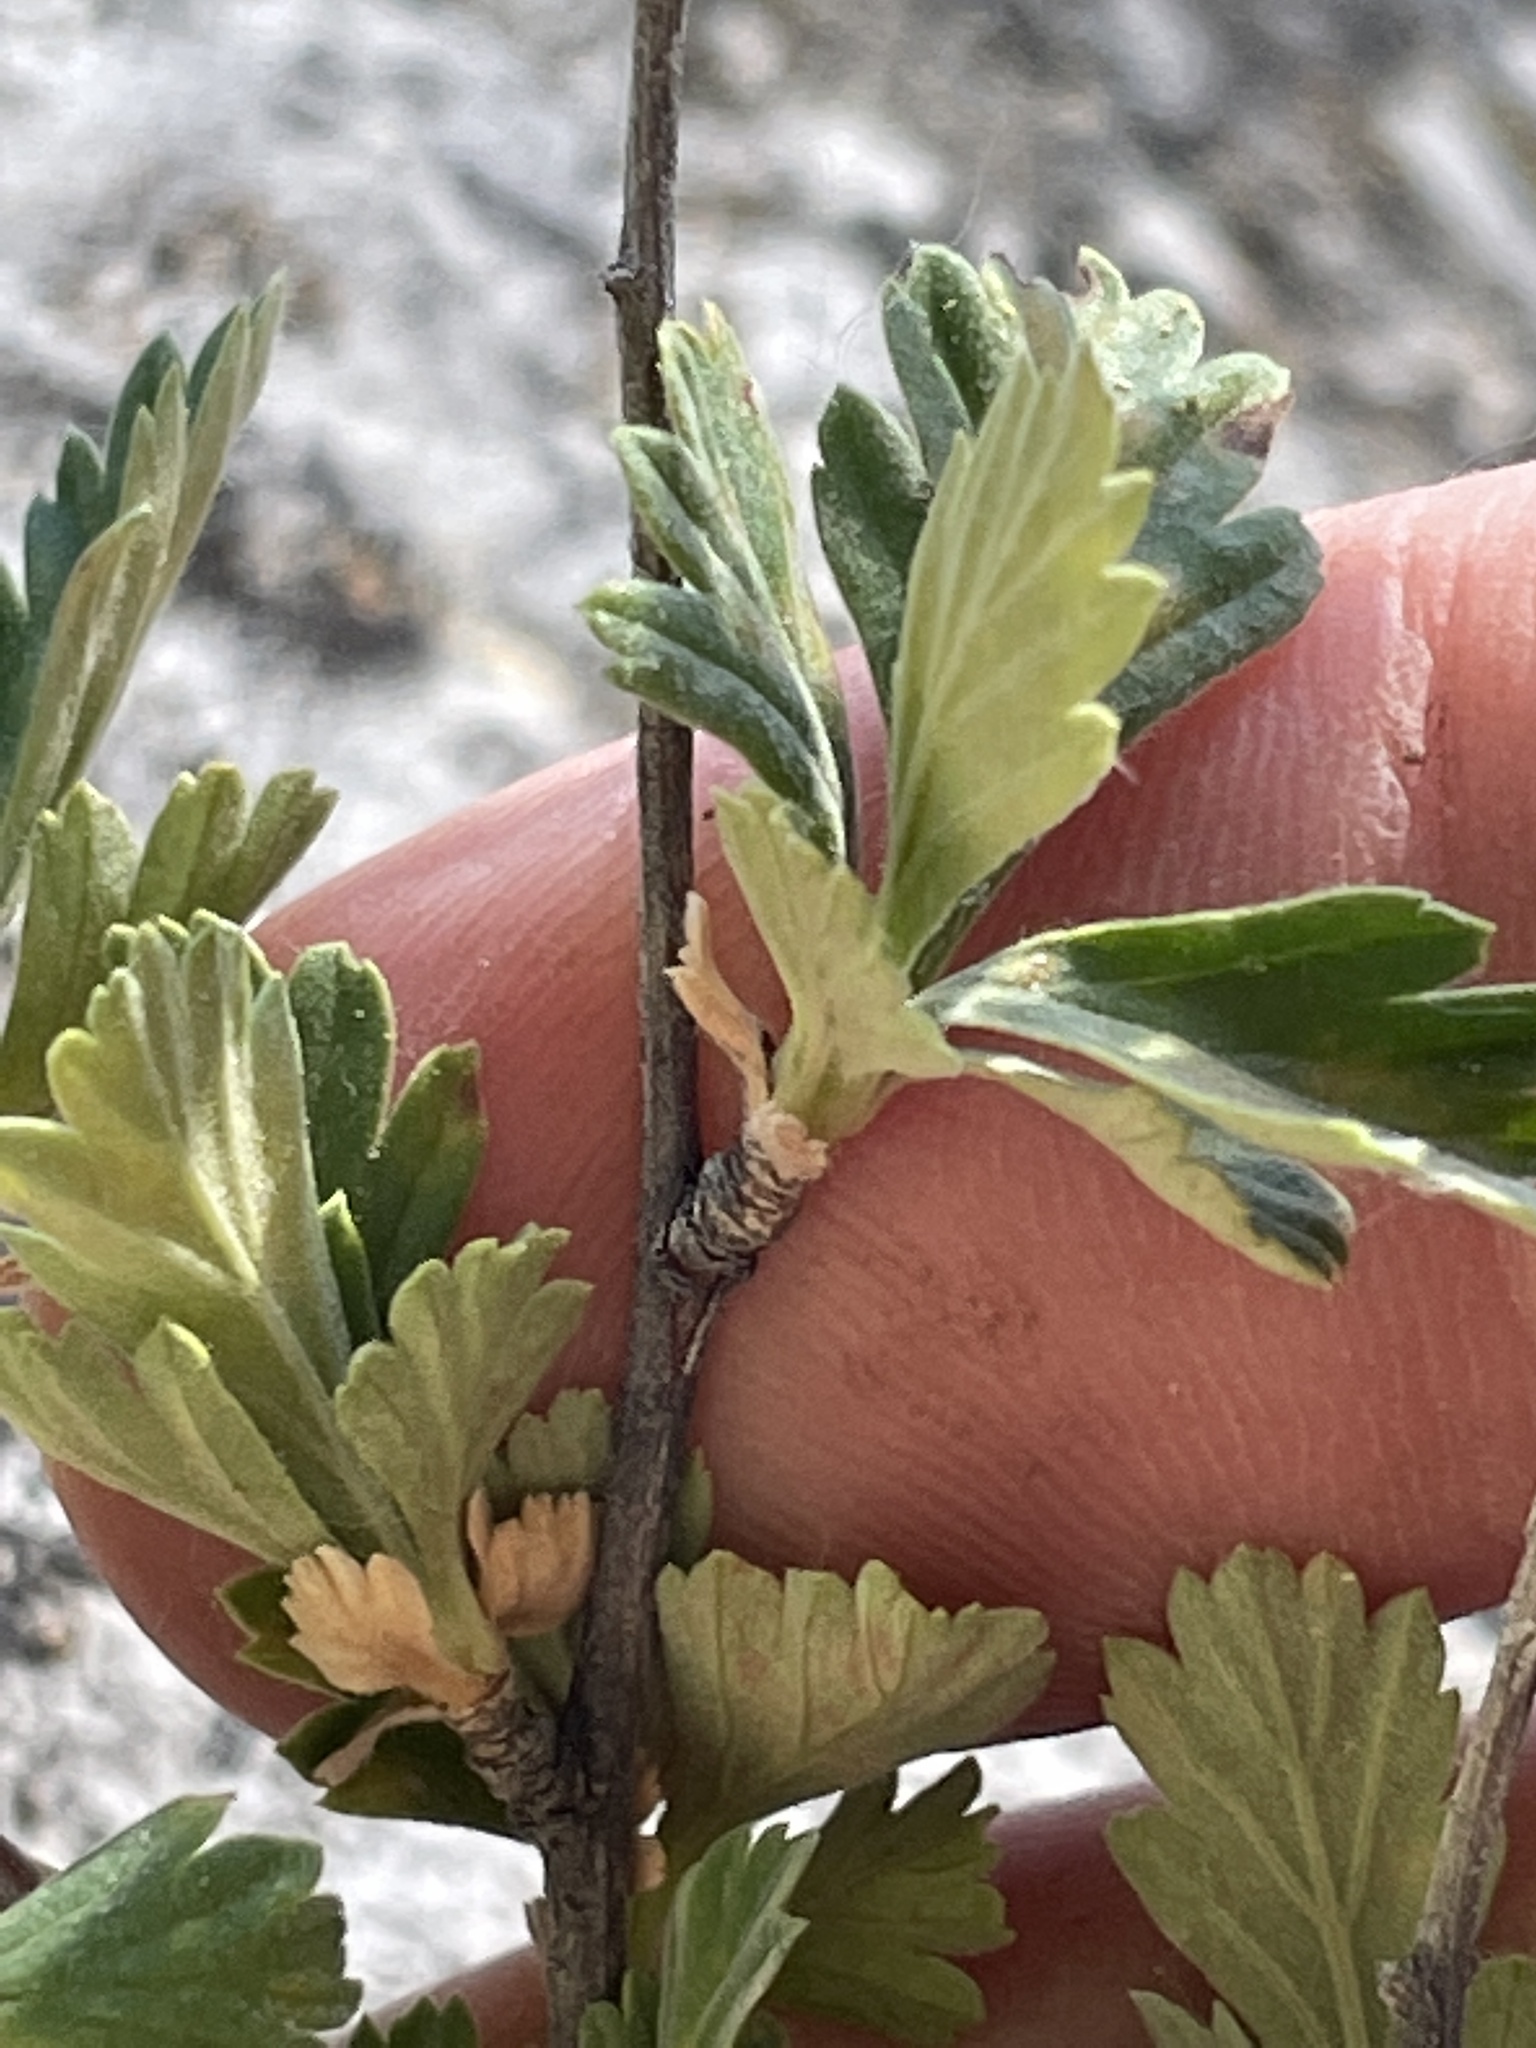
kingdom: Plantae
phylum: Tracheophyta
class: Magnoliopsida
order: Rosales
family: Rosaceae
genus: Holodiscus
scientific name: Holodiscus discolor
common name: Oceanspray
